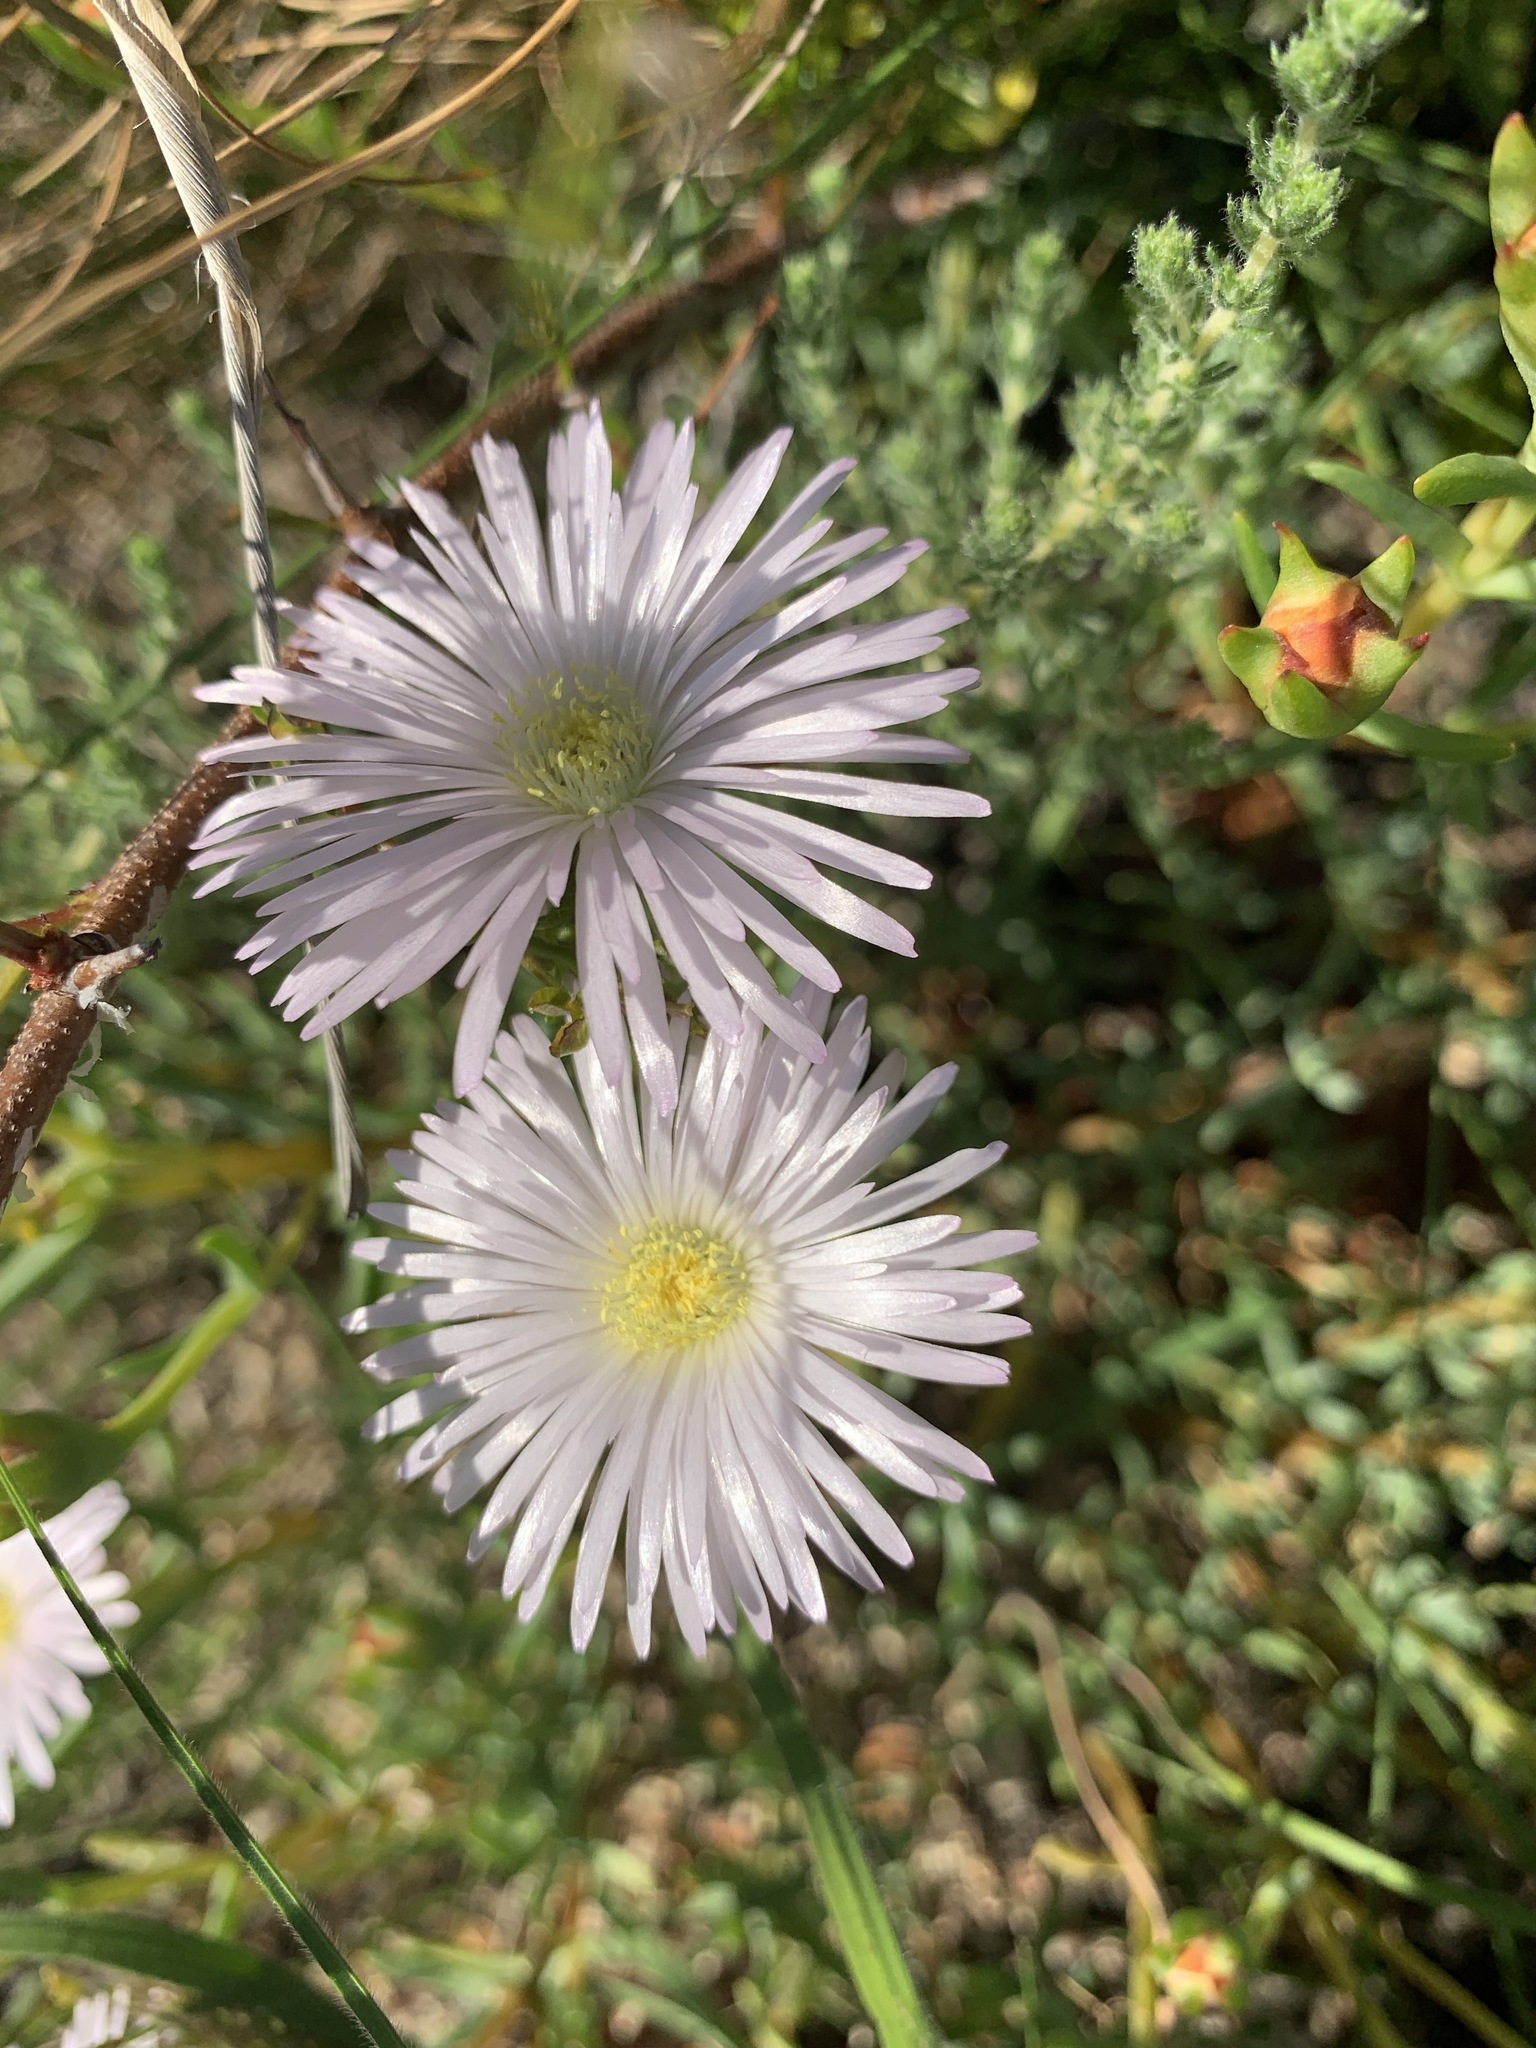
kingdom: Plantae
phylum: Tracheophyta
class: Magnoliopsida
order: Caryophyllales
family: Aizoaceae
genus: Lampranthus
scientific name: Lampranthus glomeratus
